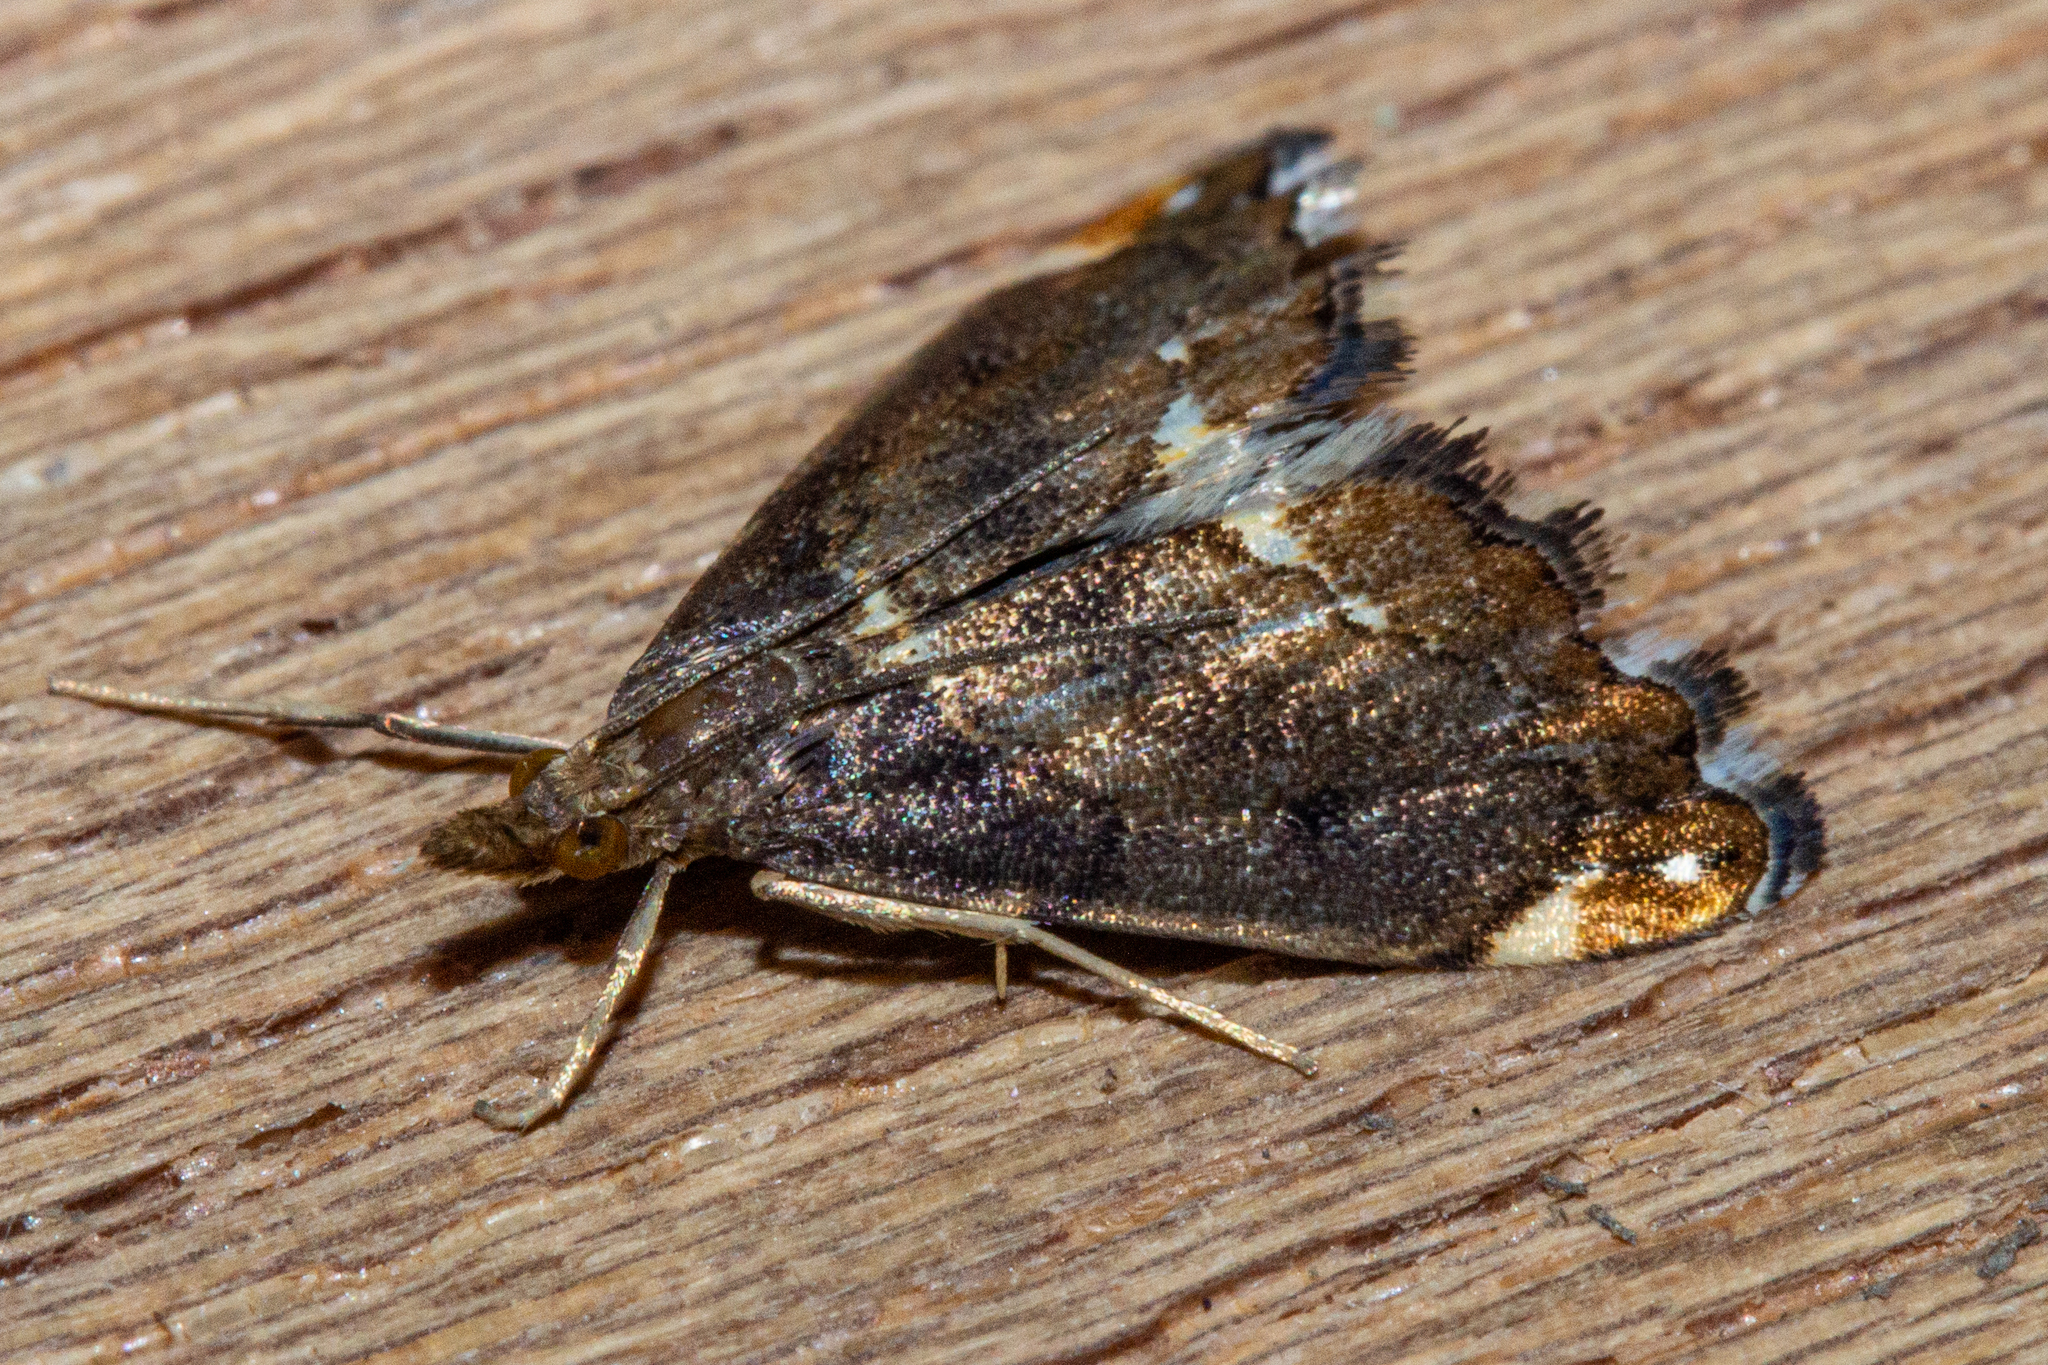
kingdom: Animalia
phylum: Arthropoda
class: Insecta
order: Lepidoptera
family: Crambidae
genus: Glaucocharis
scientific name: Glaucocharis pyrsophanes
